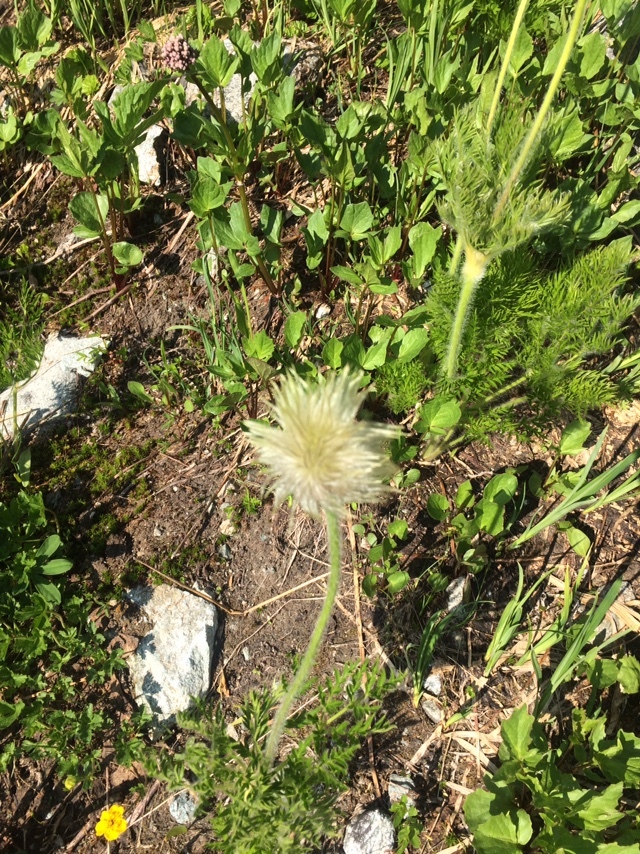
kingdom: Plantae
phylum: Tracheophyta
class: Magnoliopsida
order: Ranunculales
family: Ranunculaceae
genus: Pulsatilla
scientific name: Pulsatilla occidentalis
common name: Mountain pasqueflower
